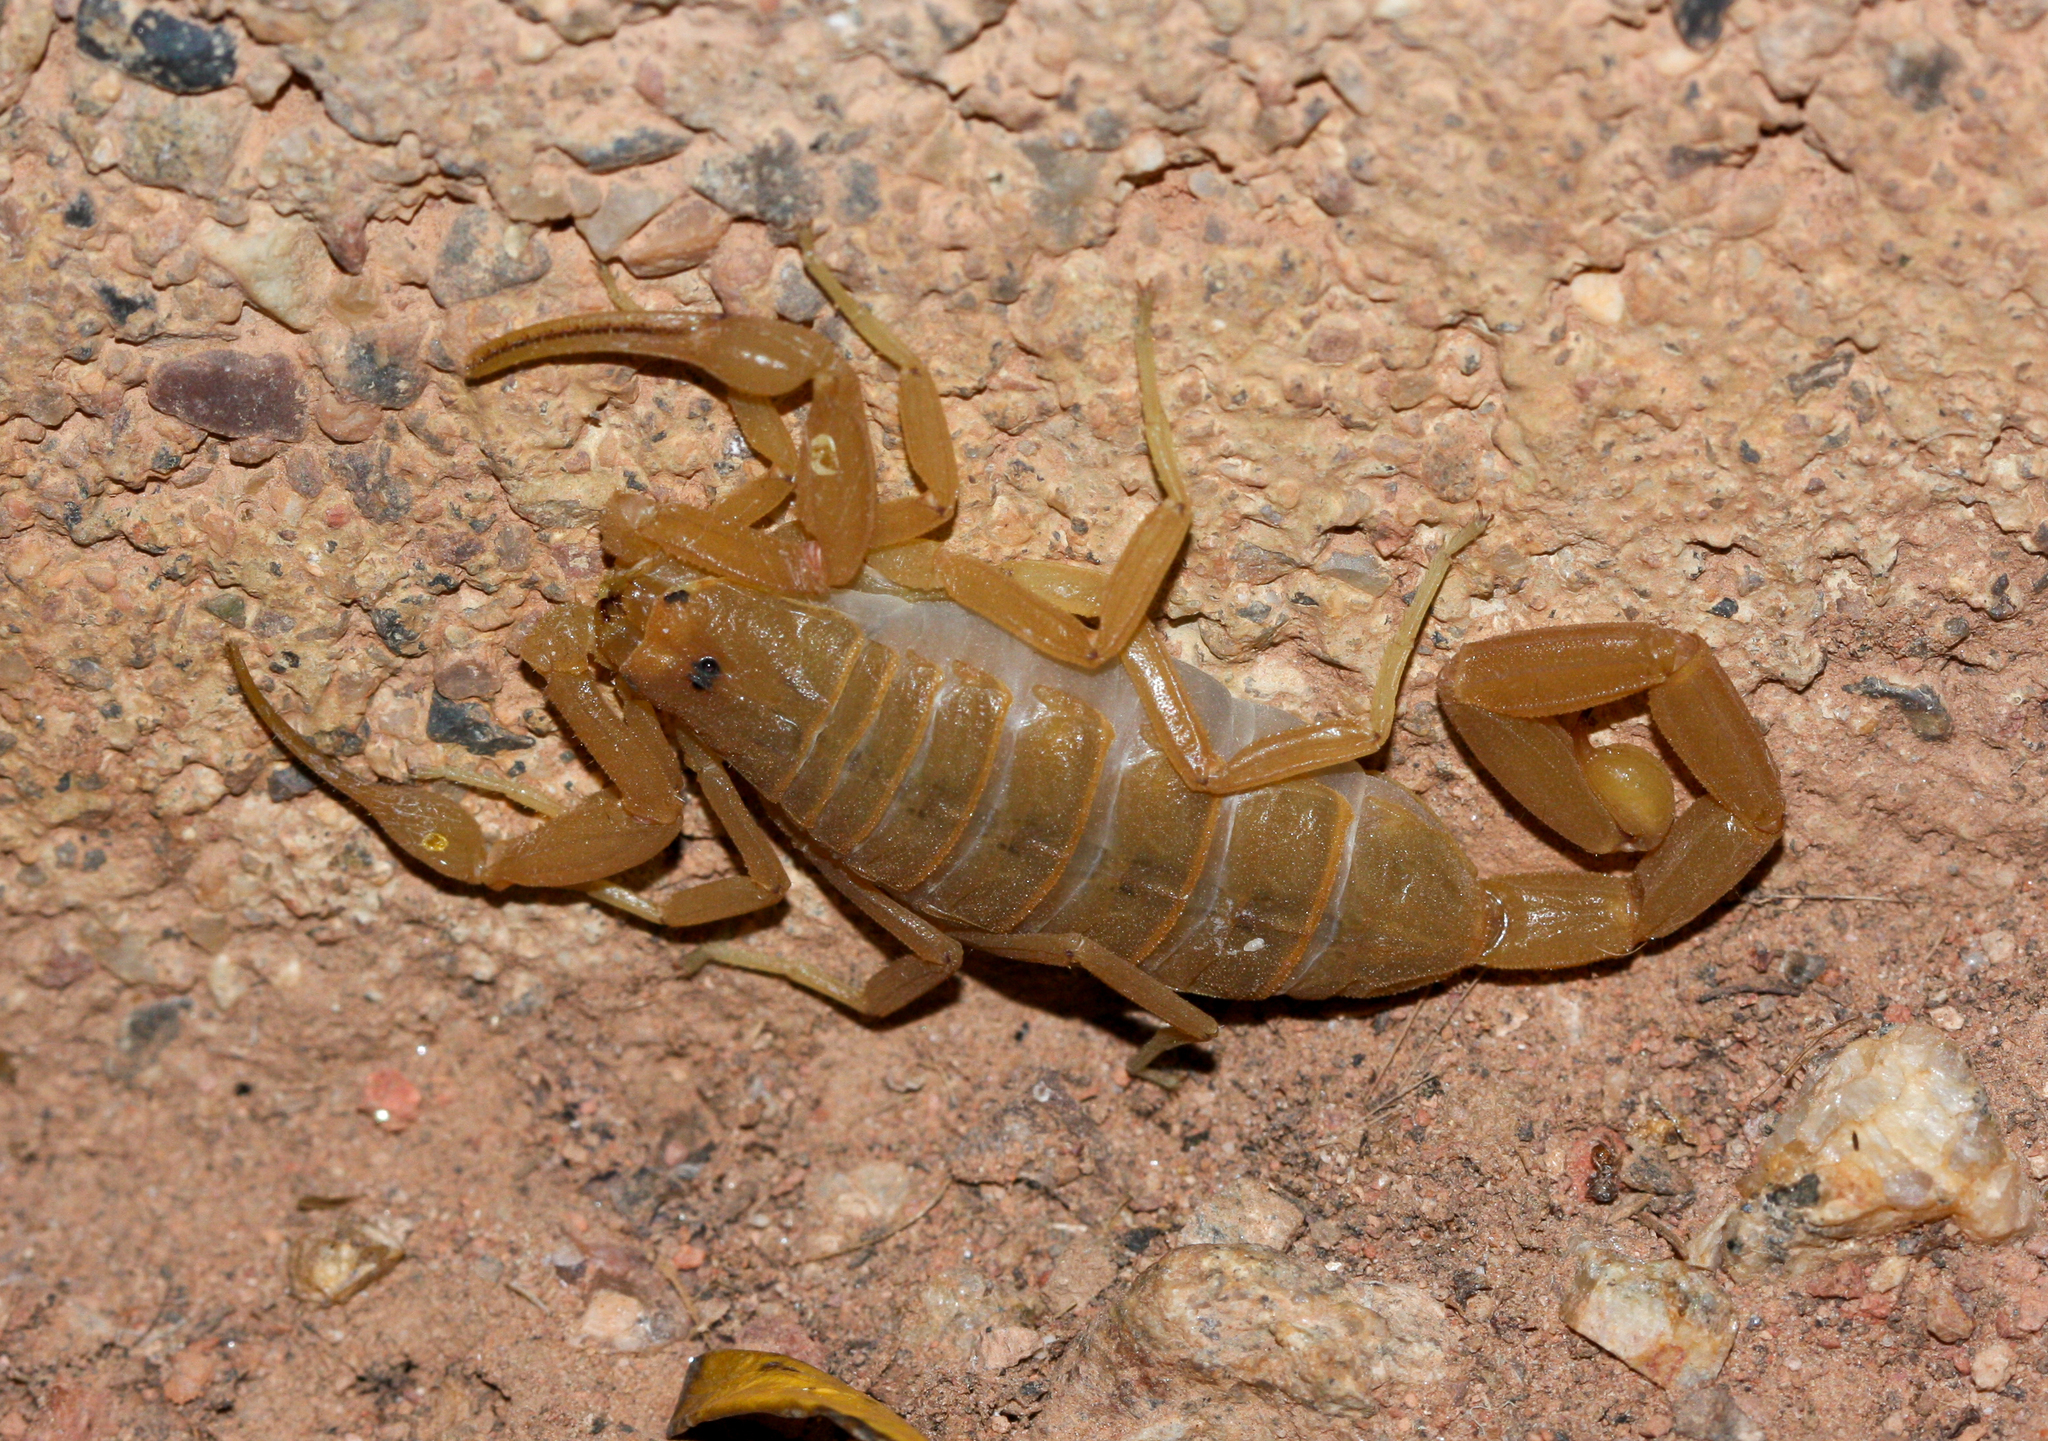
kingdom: Animalia
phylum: Arthropoda
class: Arachnida
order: Scorpiones
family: Buthidae
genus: Centruroides
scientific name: Centruroides sculpturatus
